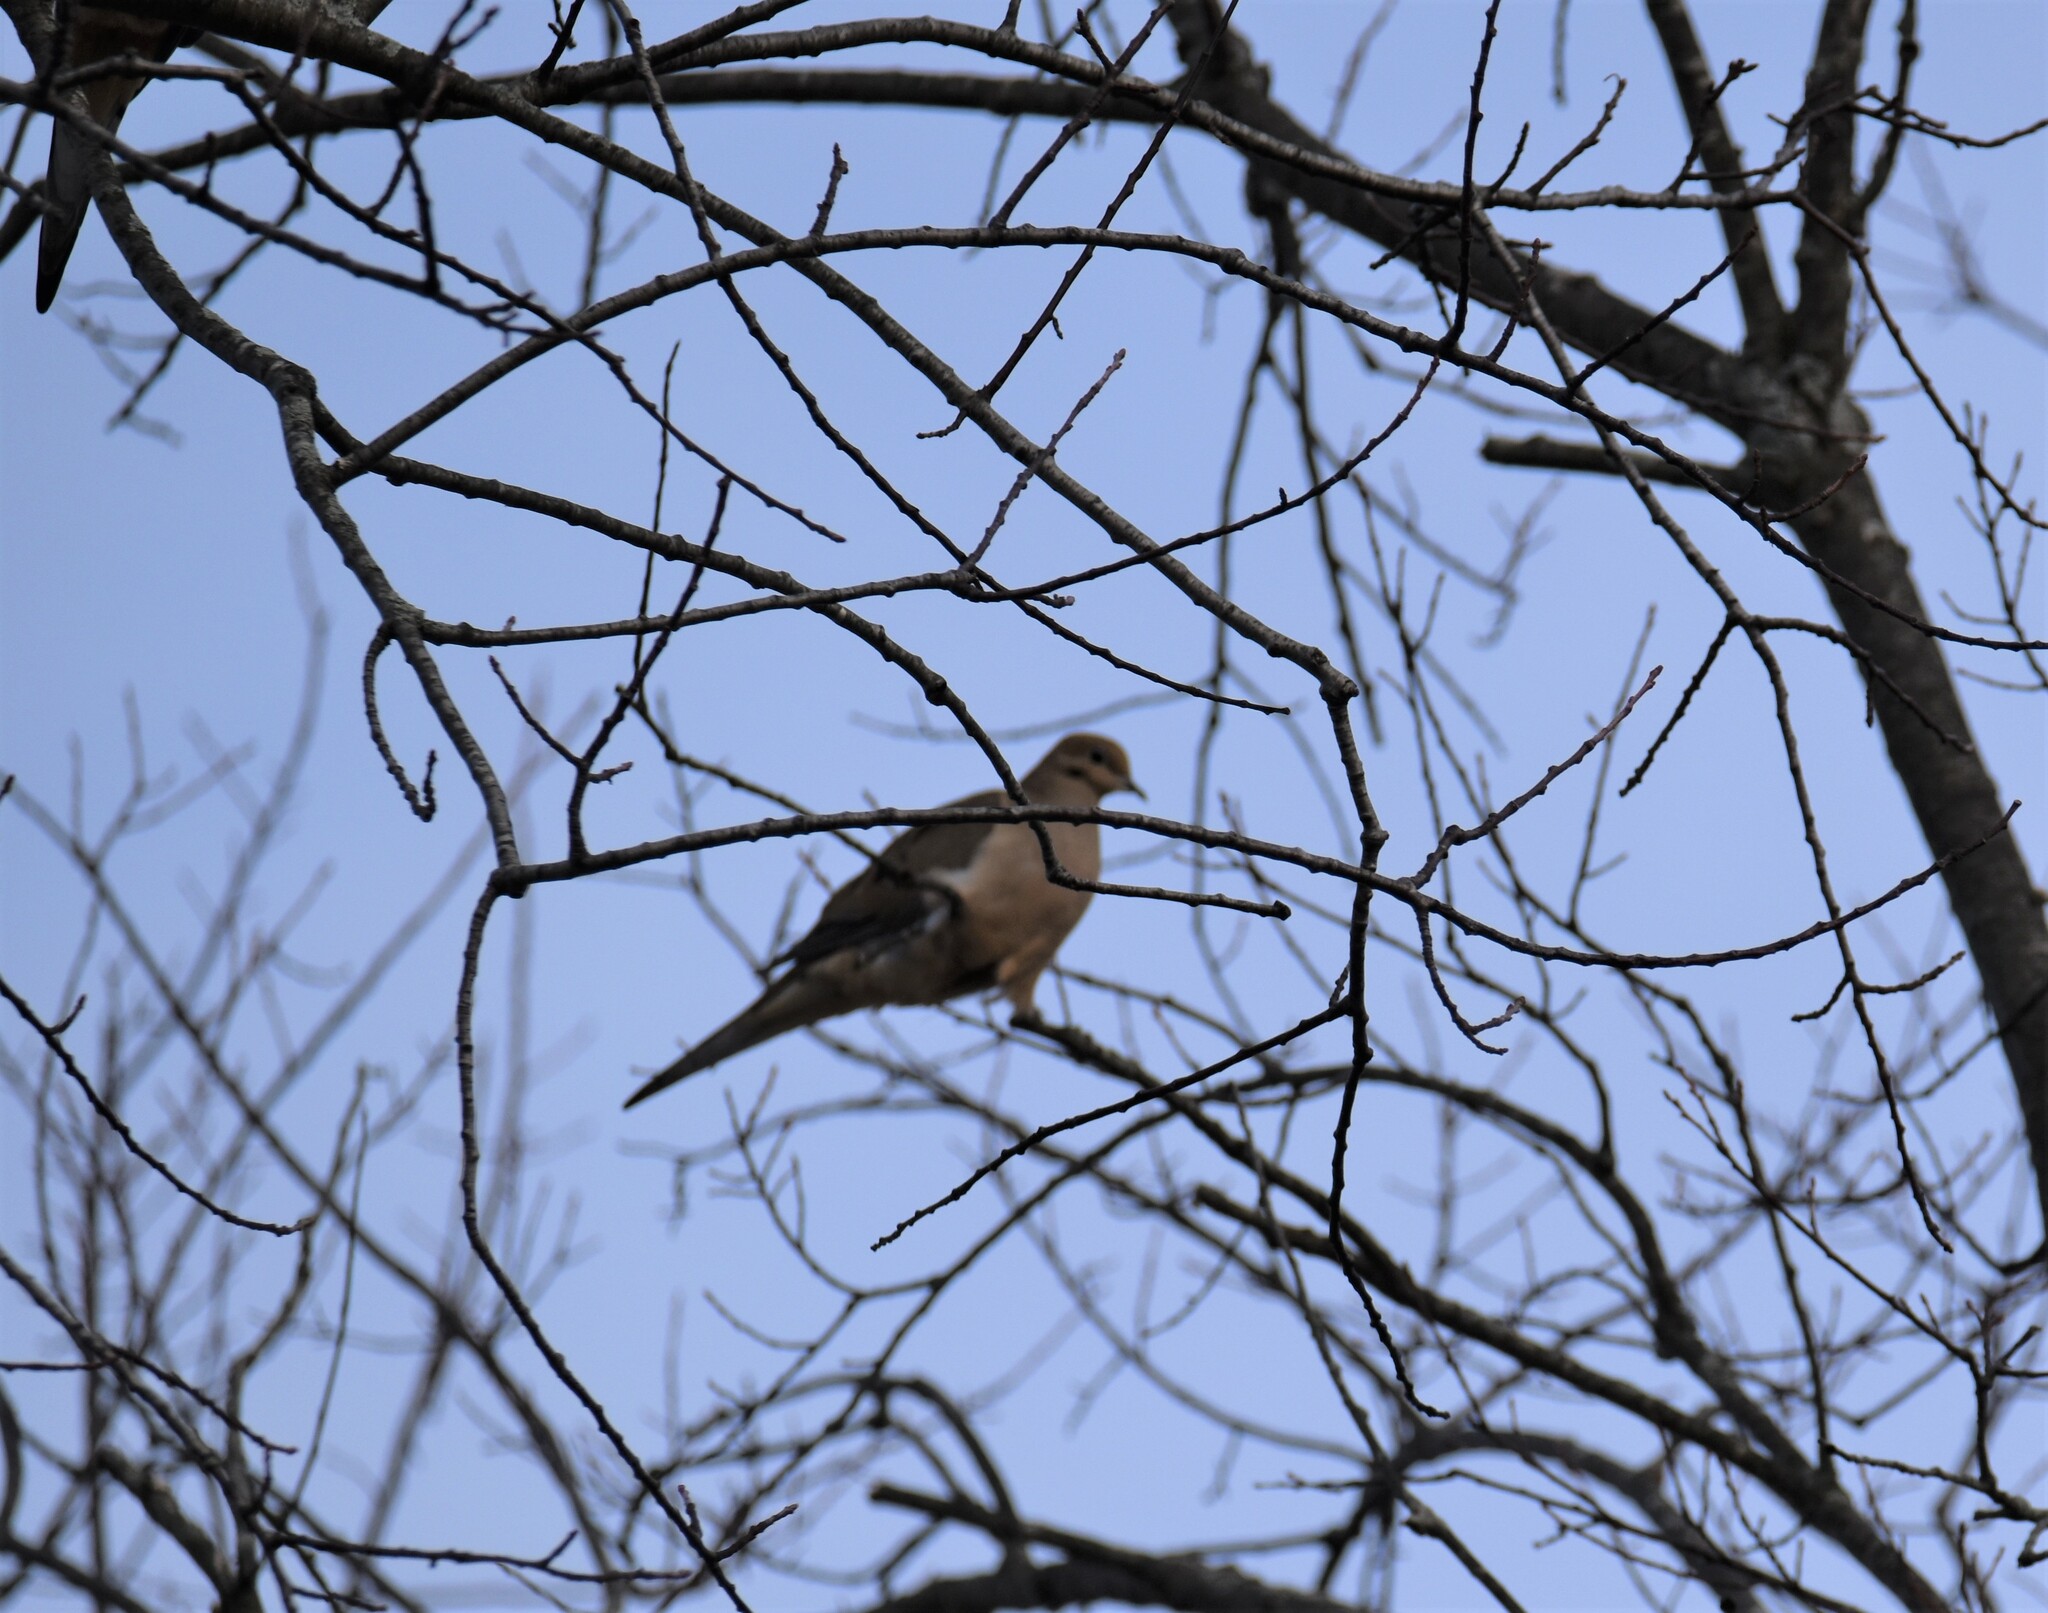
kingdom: Animalia
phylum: Chordata
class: Aves
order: Columbiformes
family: Columbidae
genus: Zenaida
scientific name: Zenaida macroura
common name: Mourning dove
